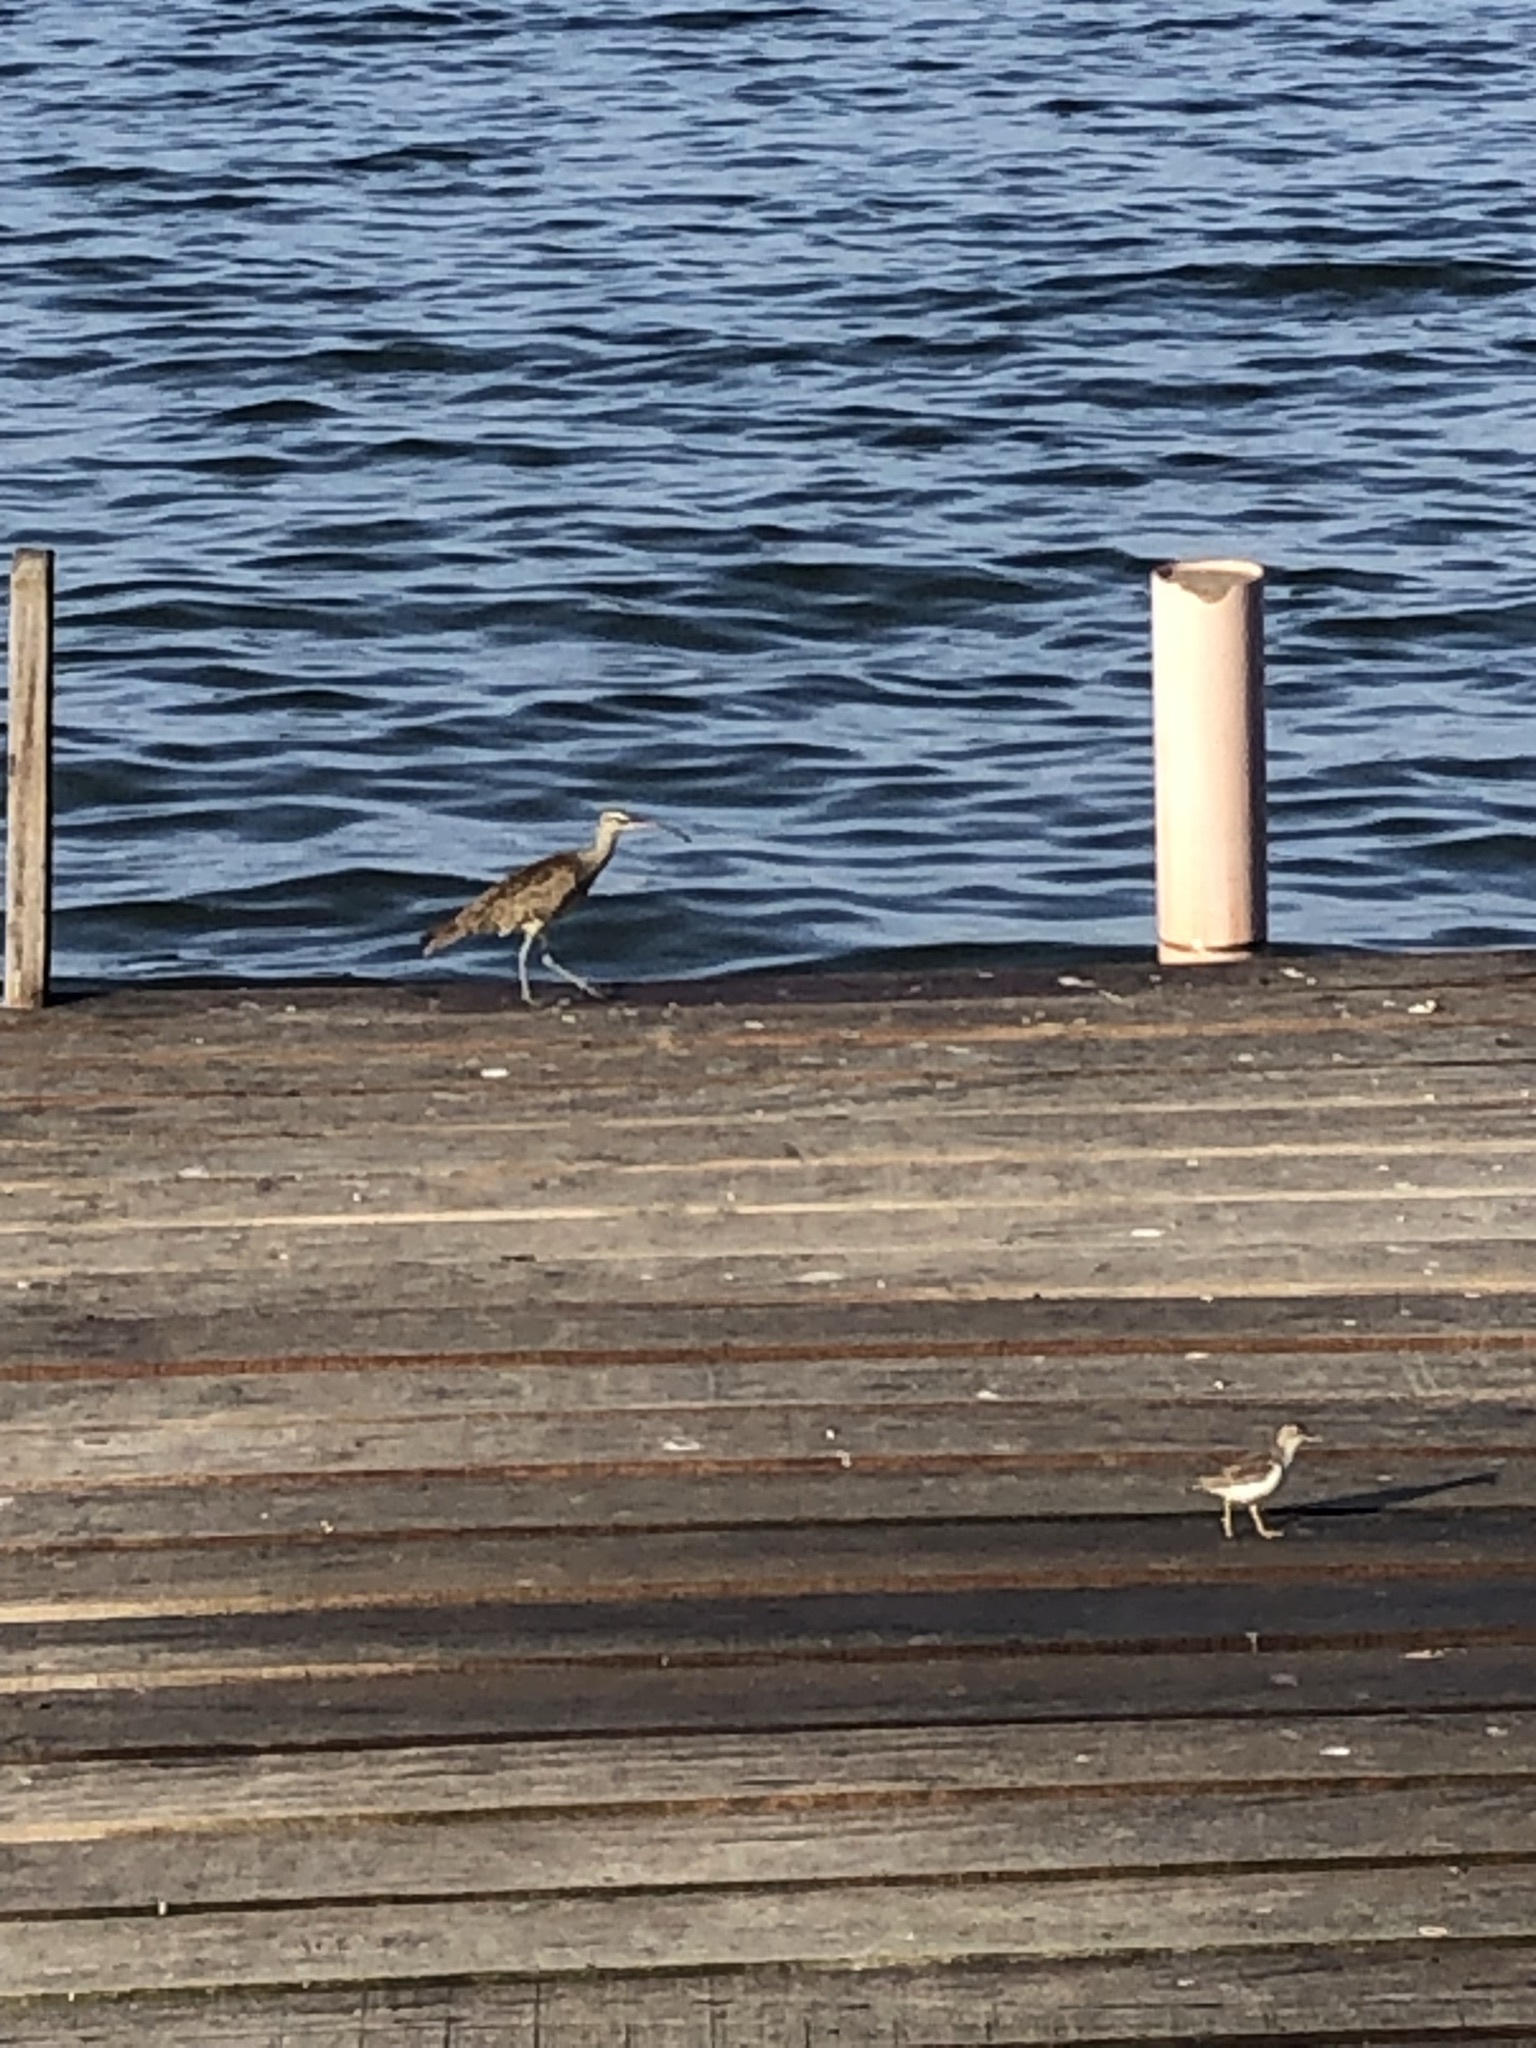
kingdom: Animalia
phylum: Chordata
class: Aves
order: Charadriiformes
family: Scolopacidae
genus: Numenius
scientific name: Numenius phaeopus
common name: Whimbrel
